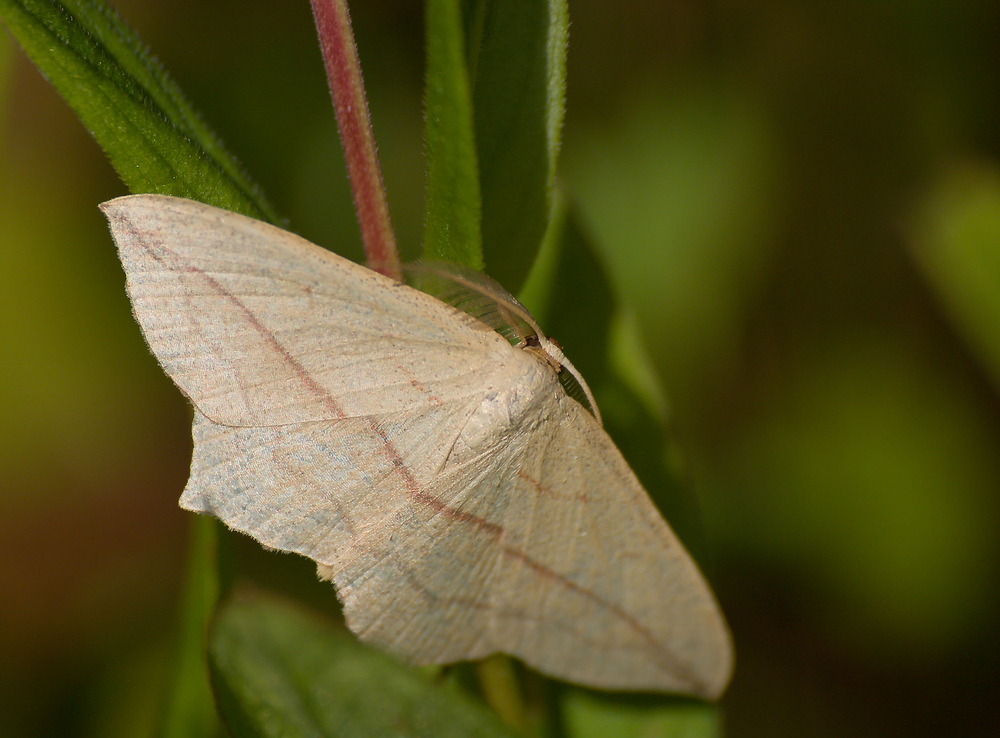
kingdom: Animalia
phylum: Arthropoda
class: Insecta
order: Lepidoptera
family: Geometridae
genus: Timandra
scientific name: Timandra comae
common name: Blood-vein
